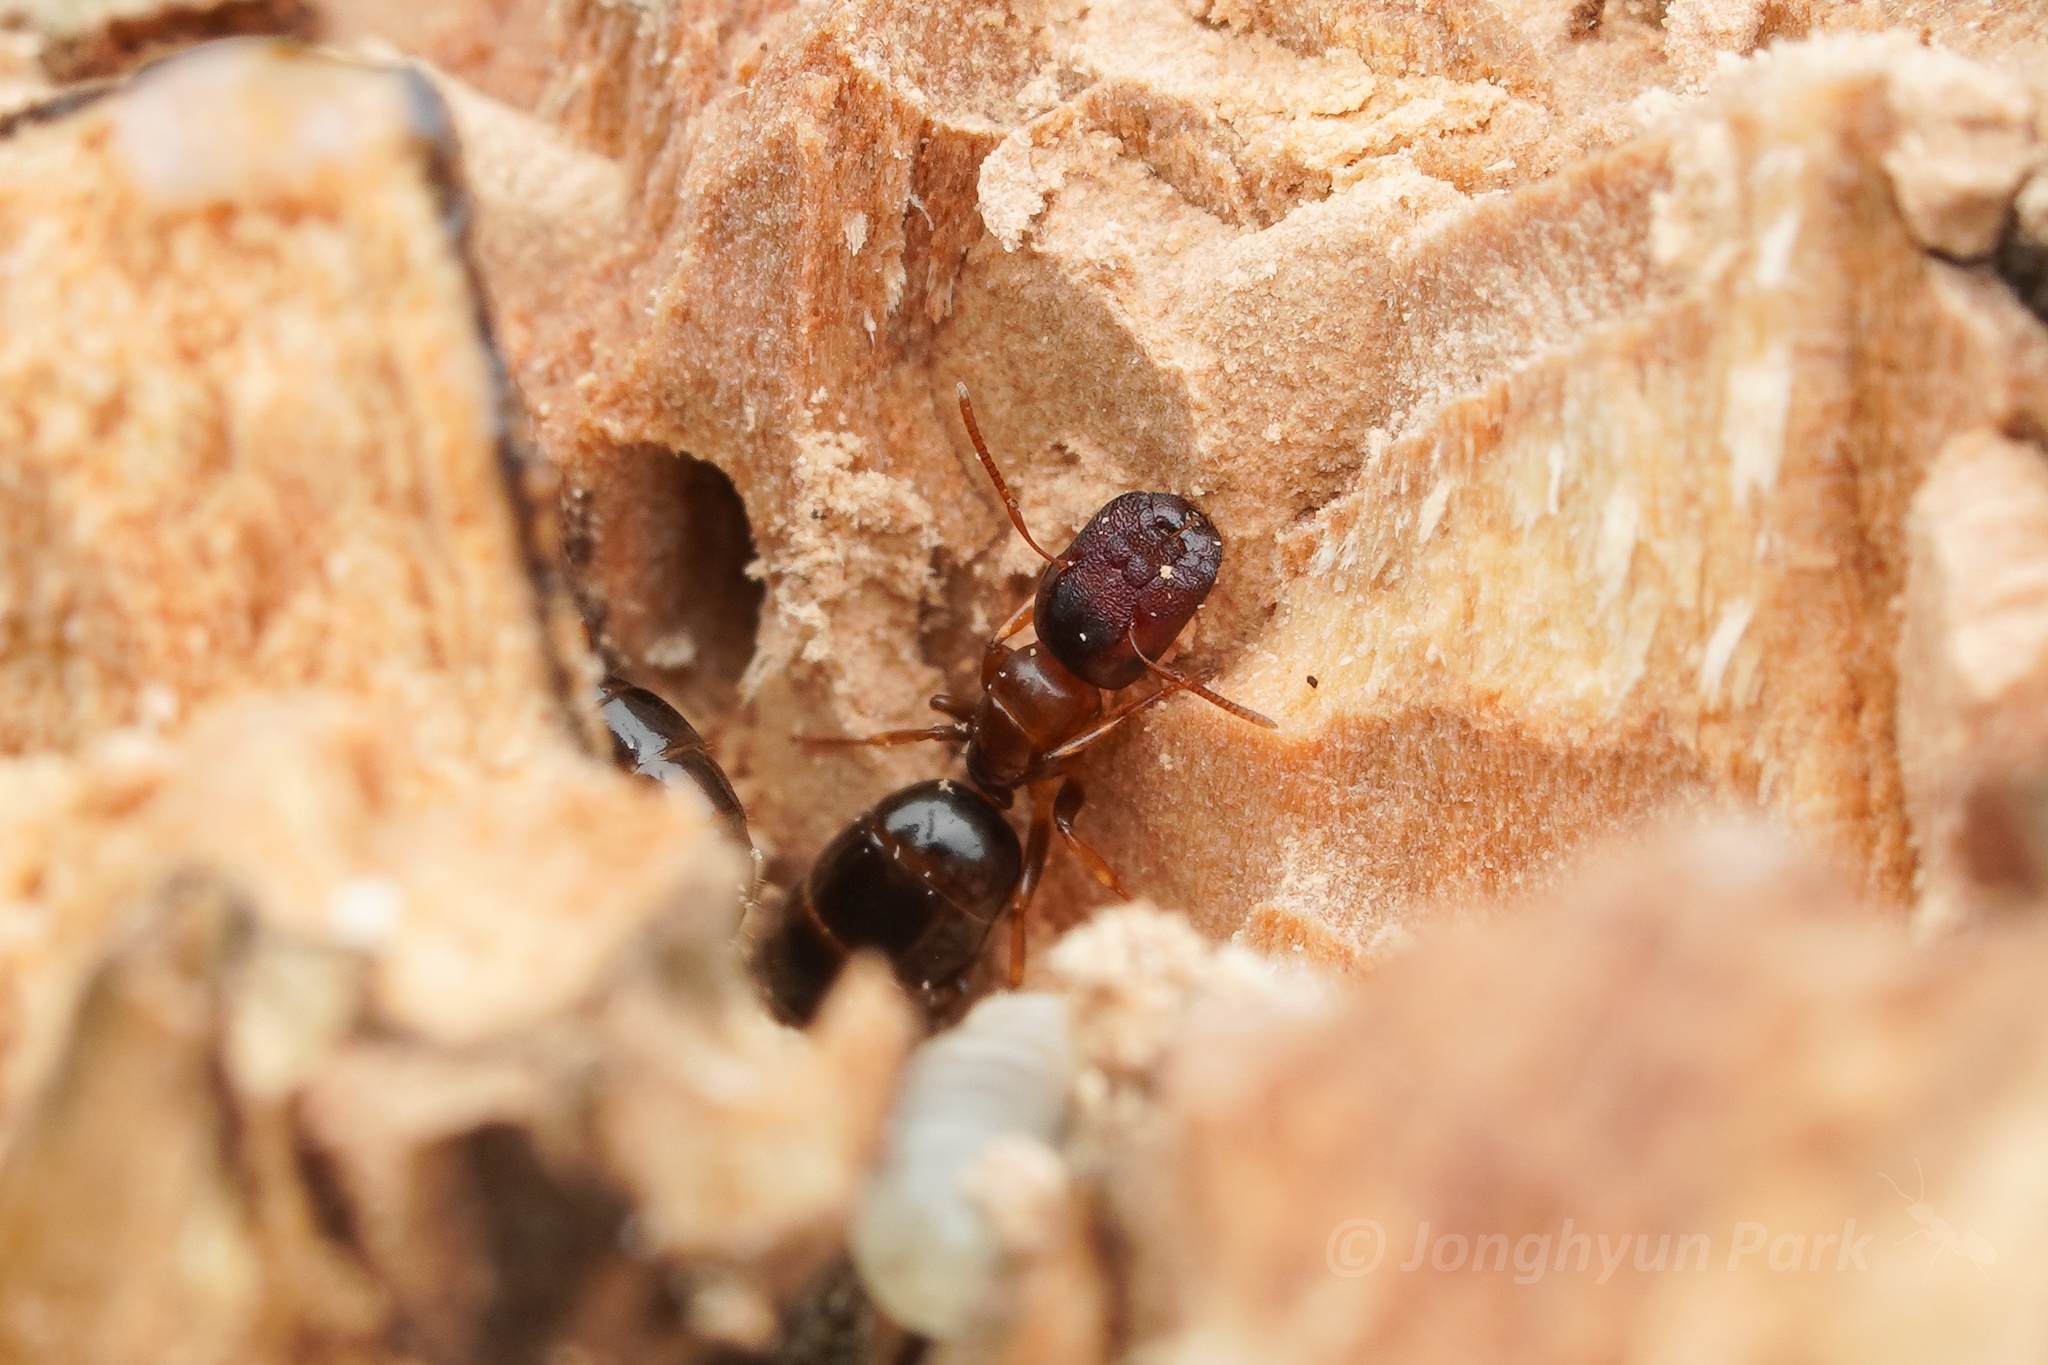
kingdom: Animalia
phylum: Arthropoda
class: Insecta
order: Hymenoptera
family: Formicidae
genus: Colobopsis
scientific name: Colobopsis
